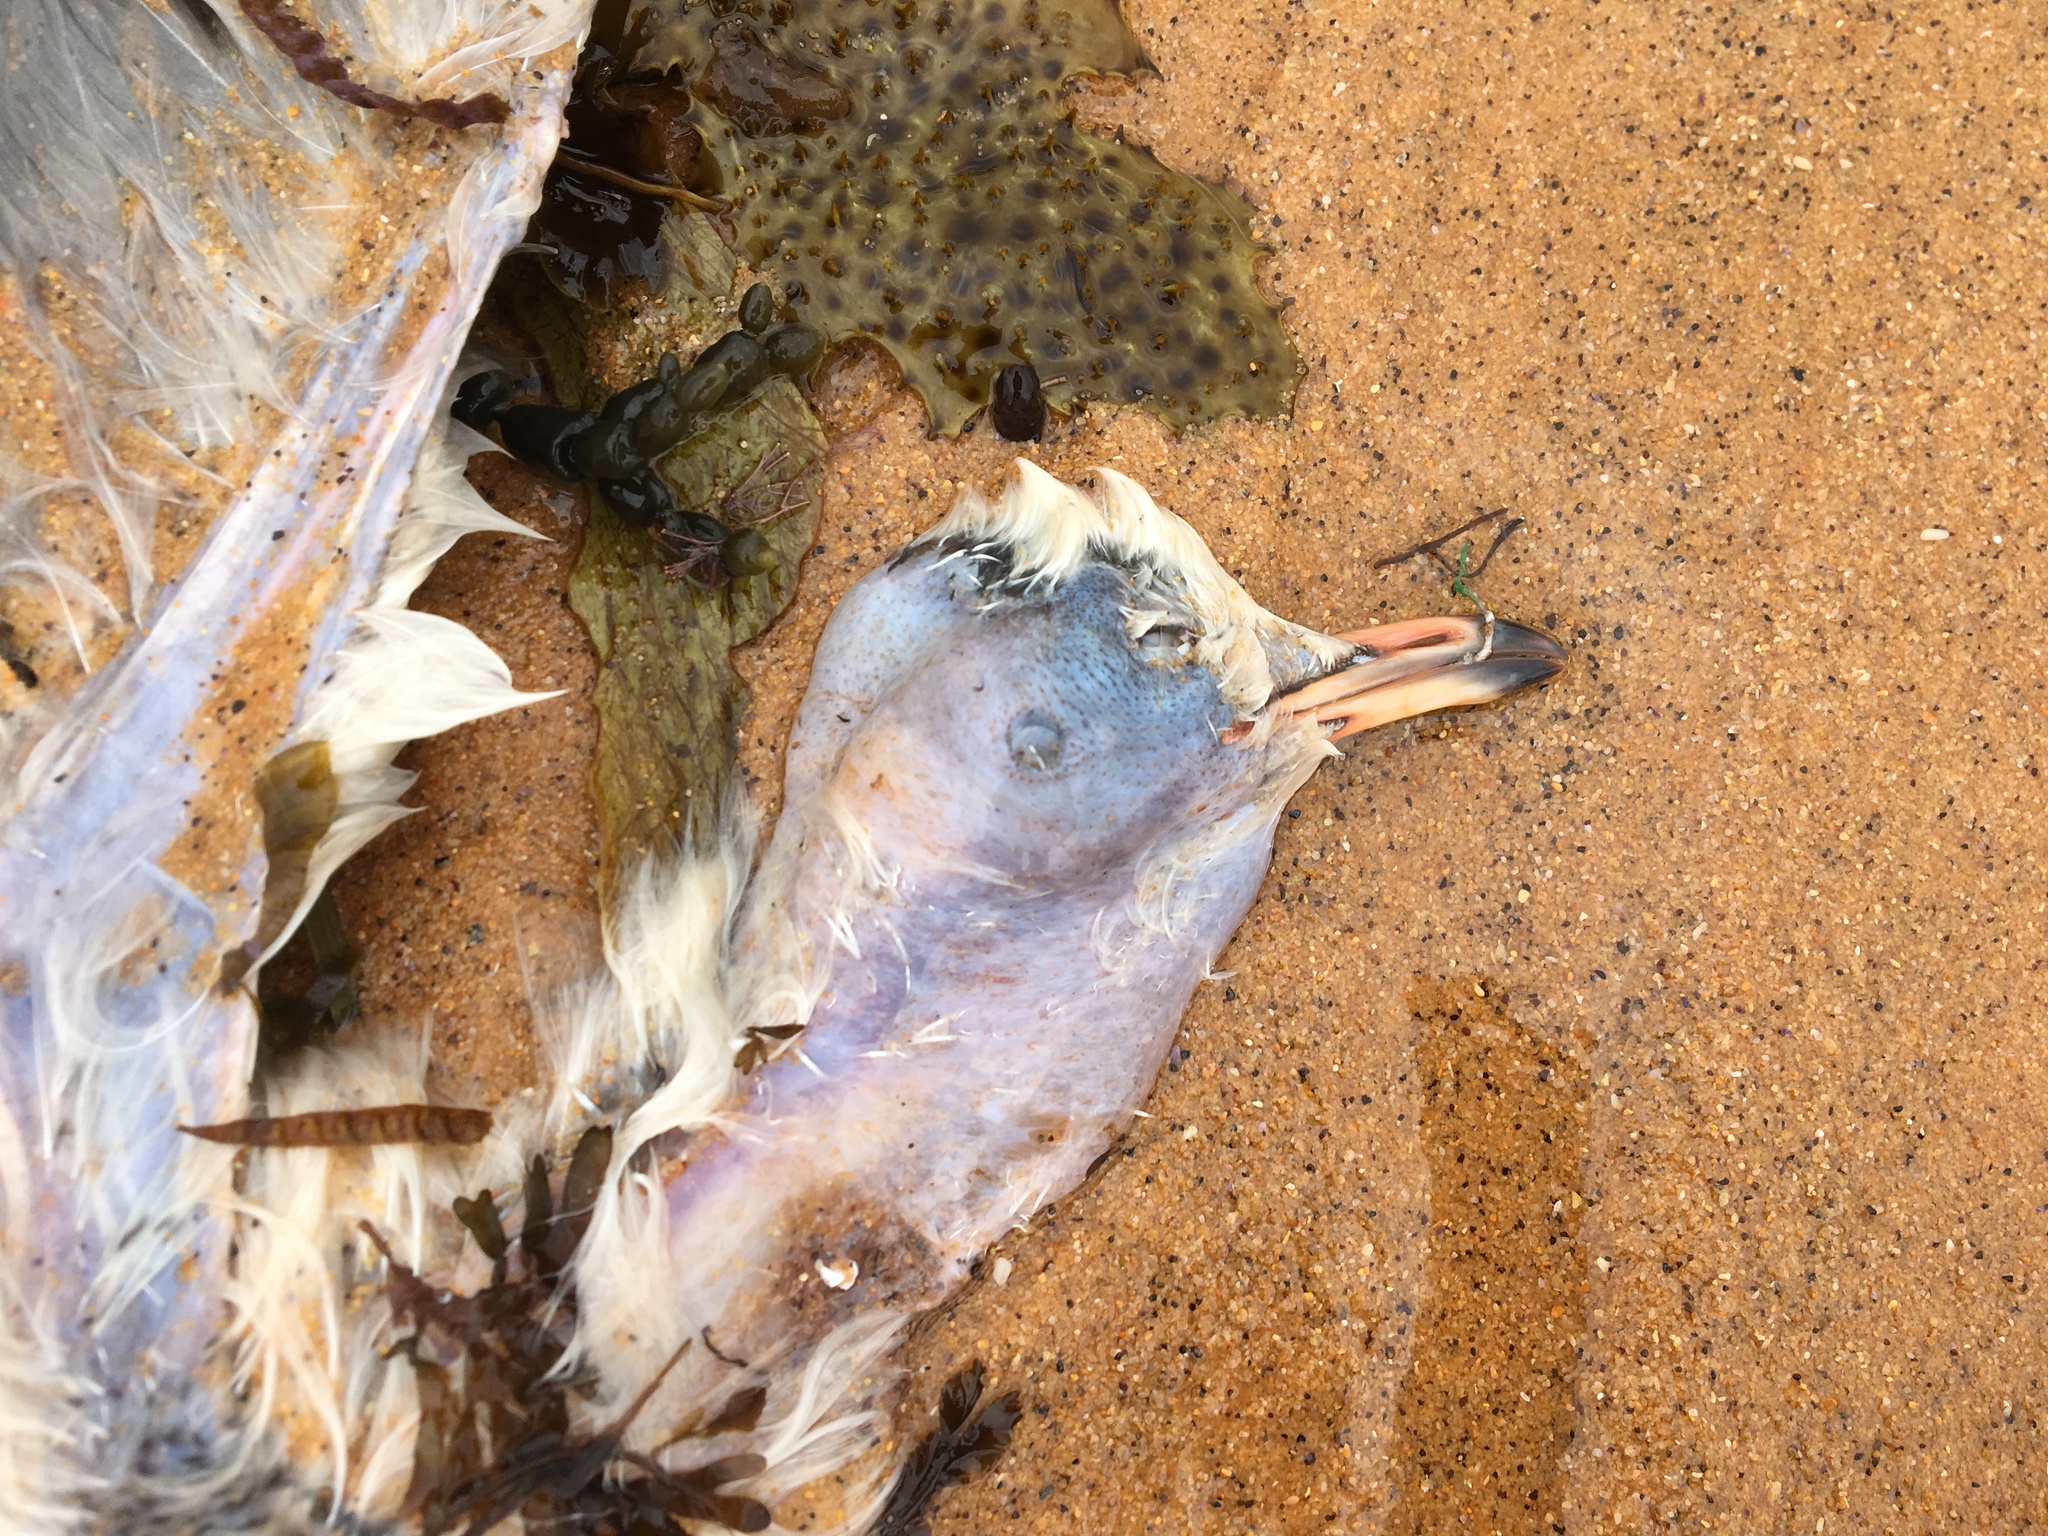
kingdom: Animalia
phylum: Chordata
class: Aves
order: Charadriiformes
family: Laridae
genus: Chroicocephalus
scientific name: Chroicocephalus novaehollandiae
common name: Silver gull
